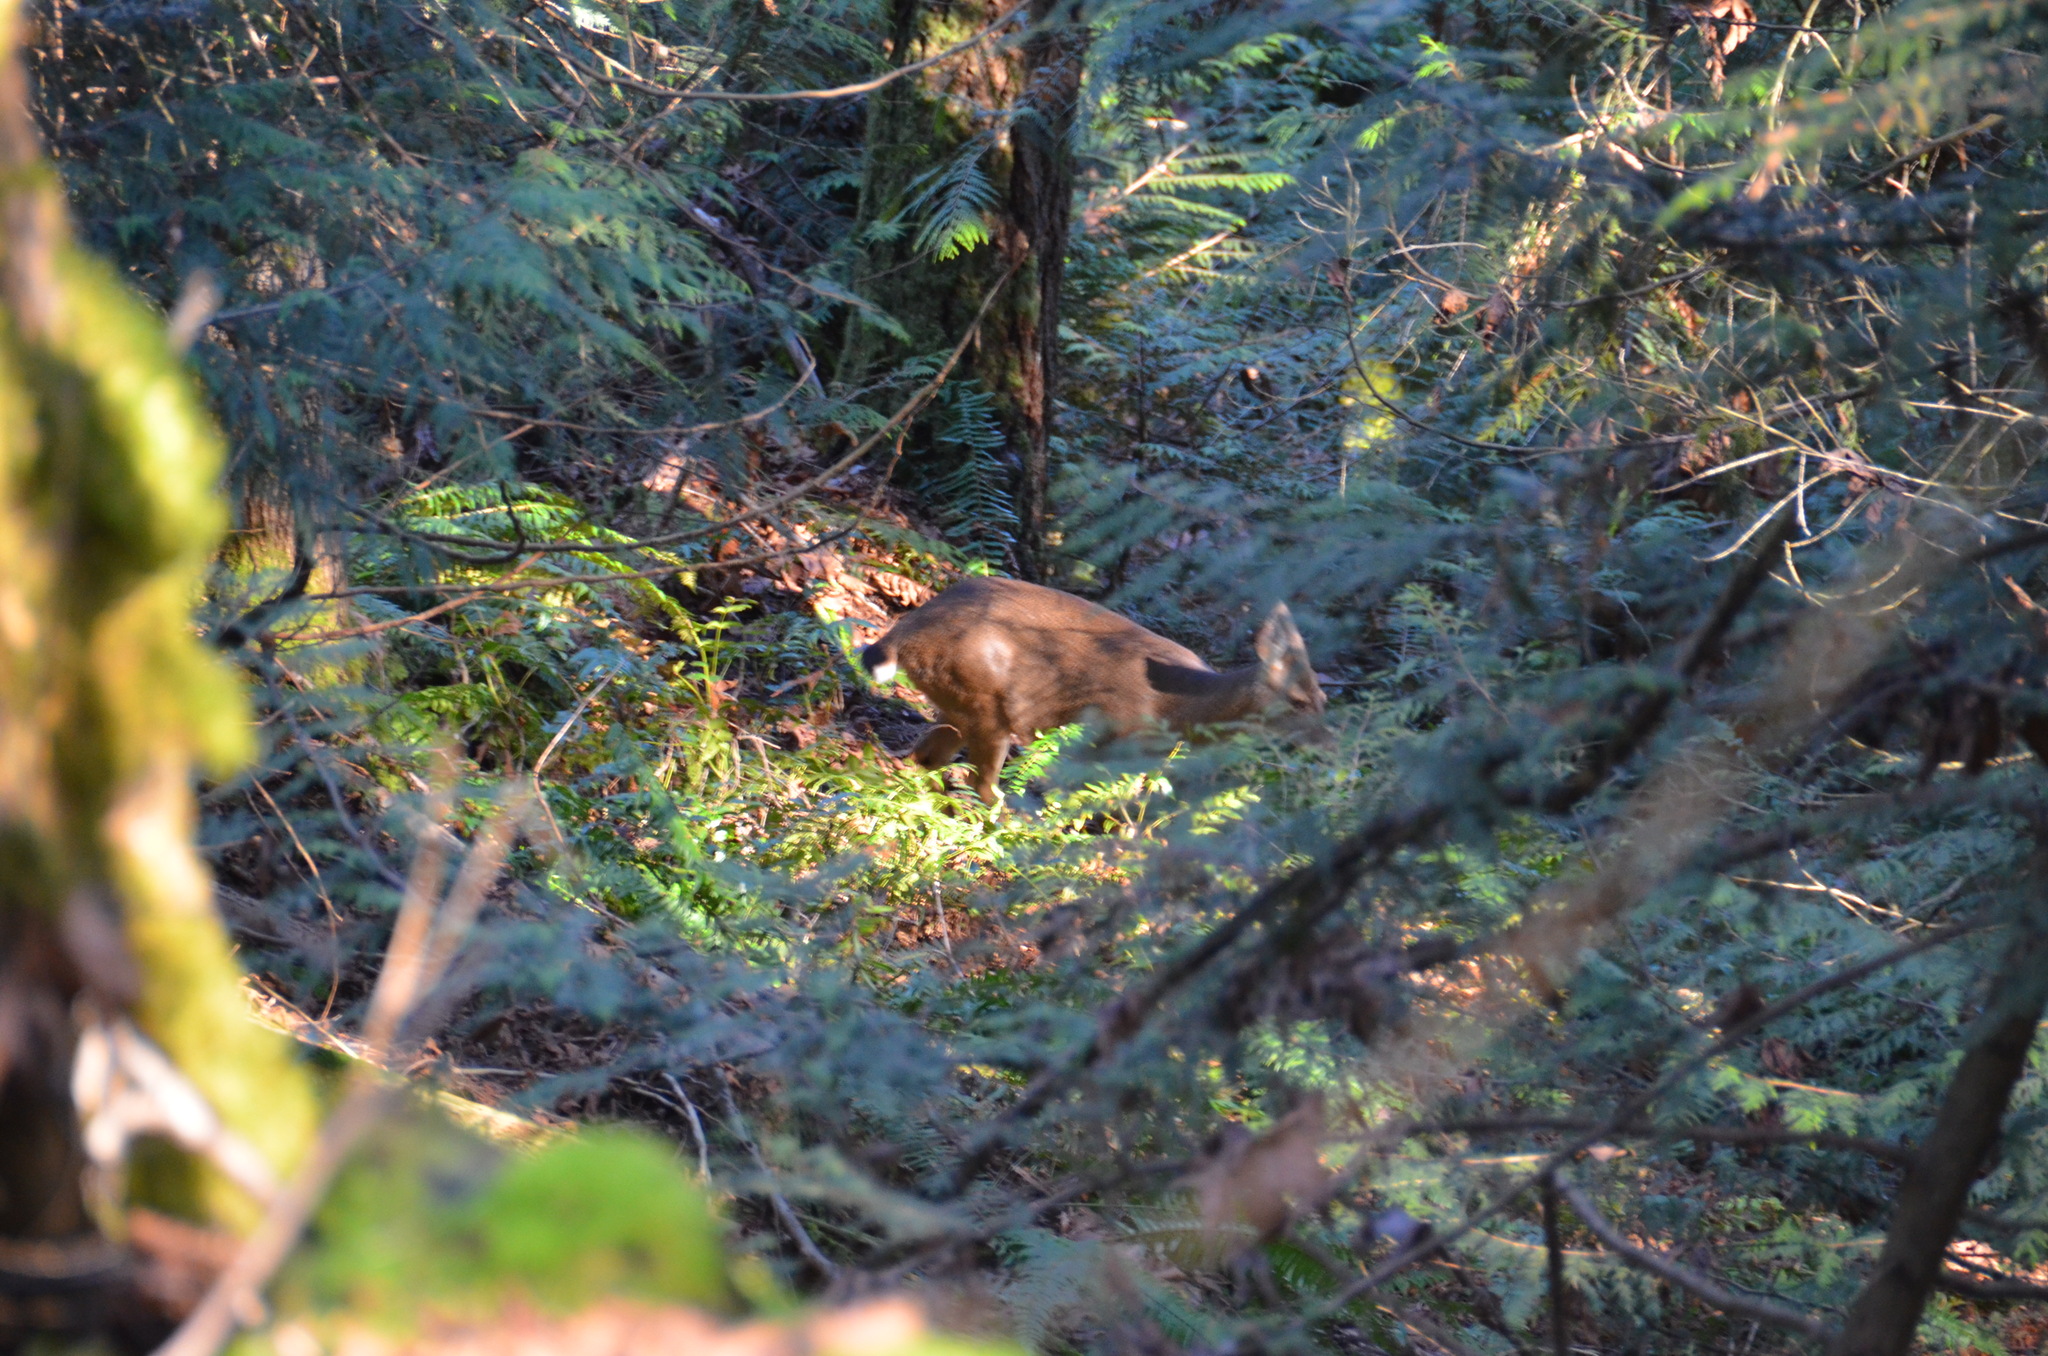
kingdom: Animalia
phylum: Chordata
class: Mammalia
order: Artiodactyla
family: Cervidae
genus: Odocoileus
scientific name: Odocoileus hemionus
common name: Mule deer
